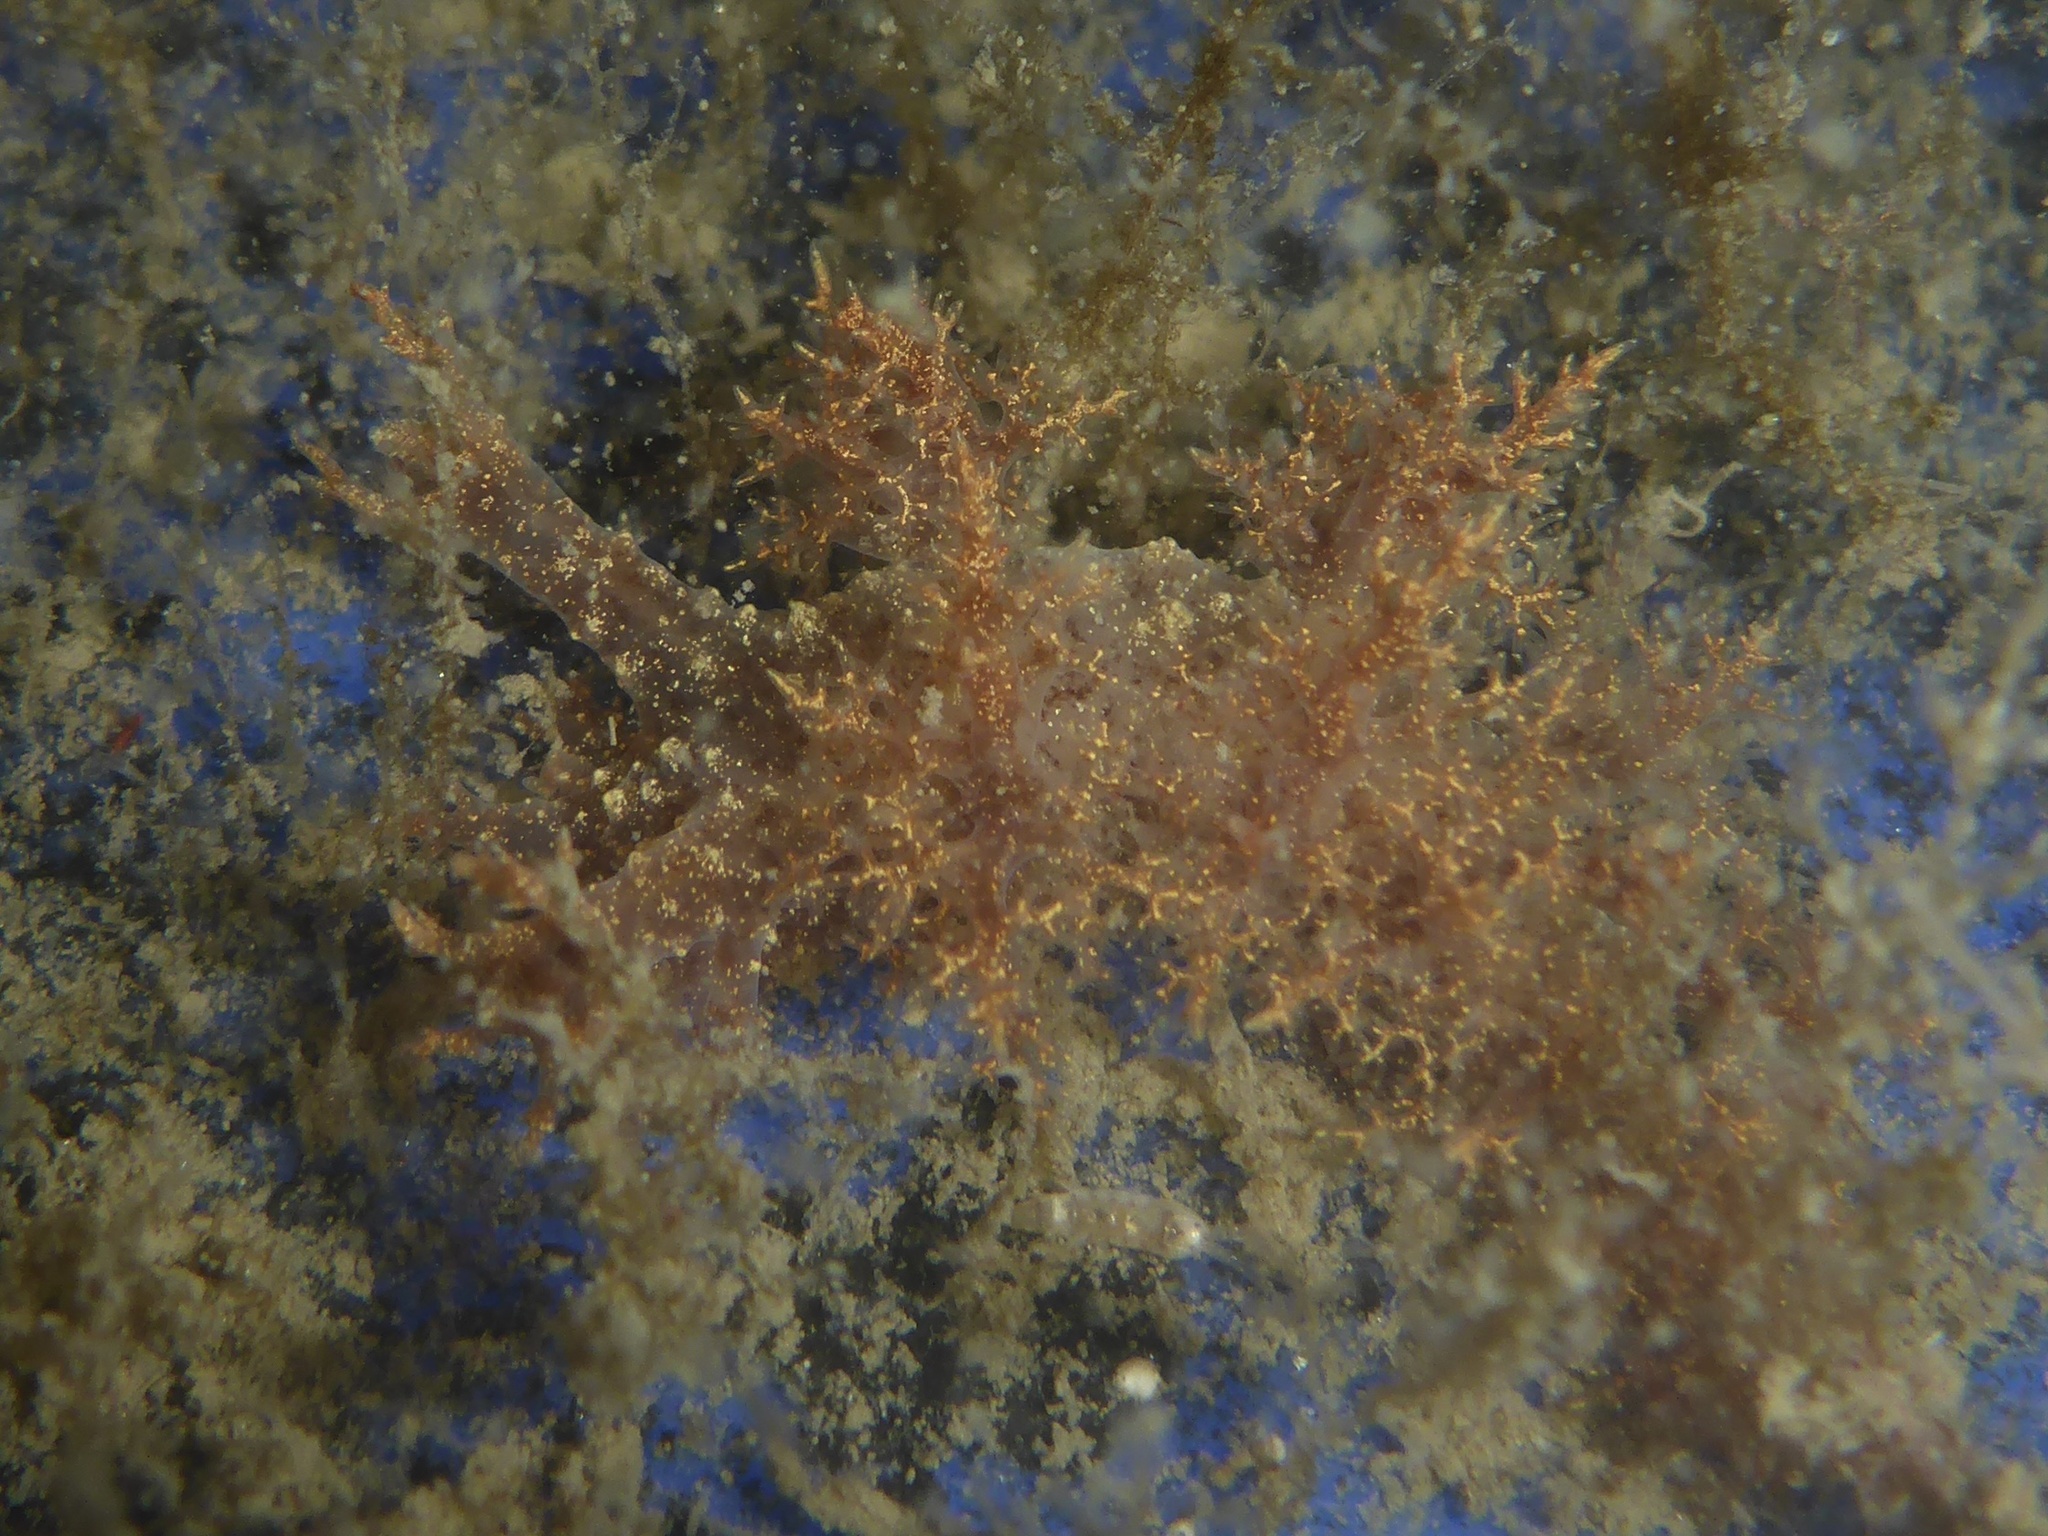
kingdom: Animalia
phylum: Mollusca
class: Gastropoda
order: Nudibranchia
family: Dendronotidae
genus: Dendronotus
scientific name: Dendronotus venustus
